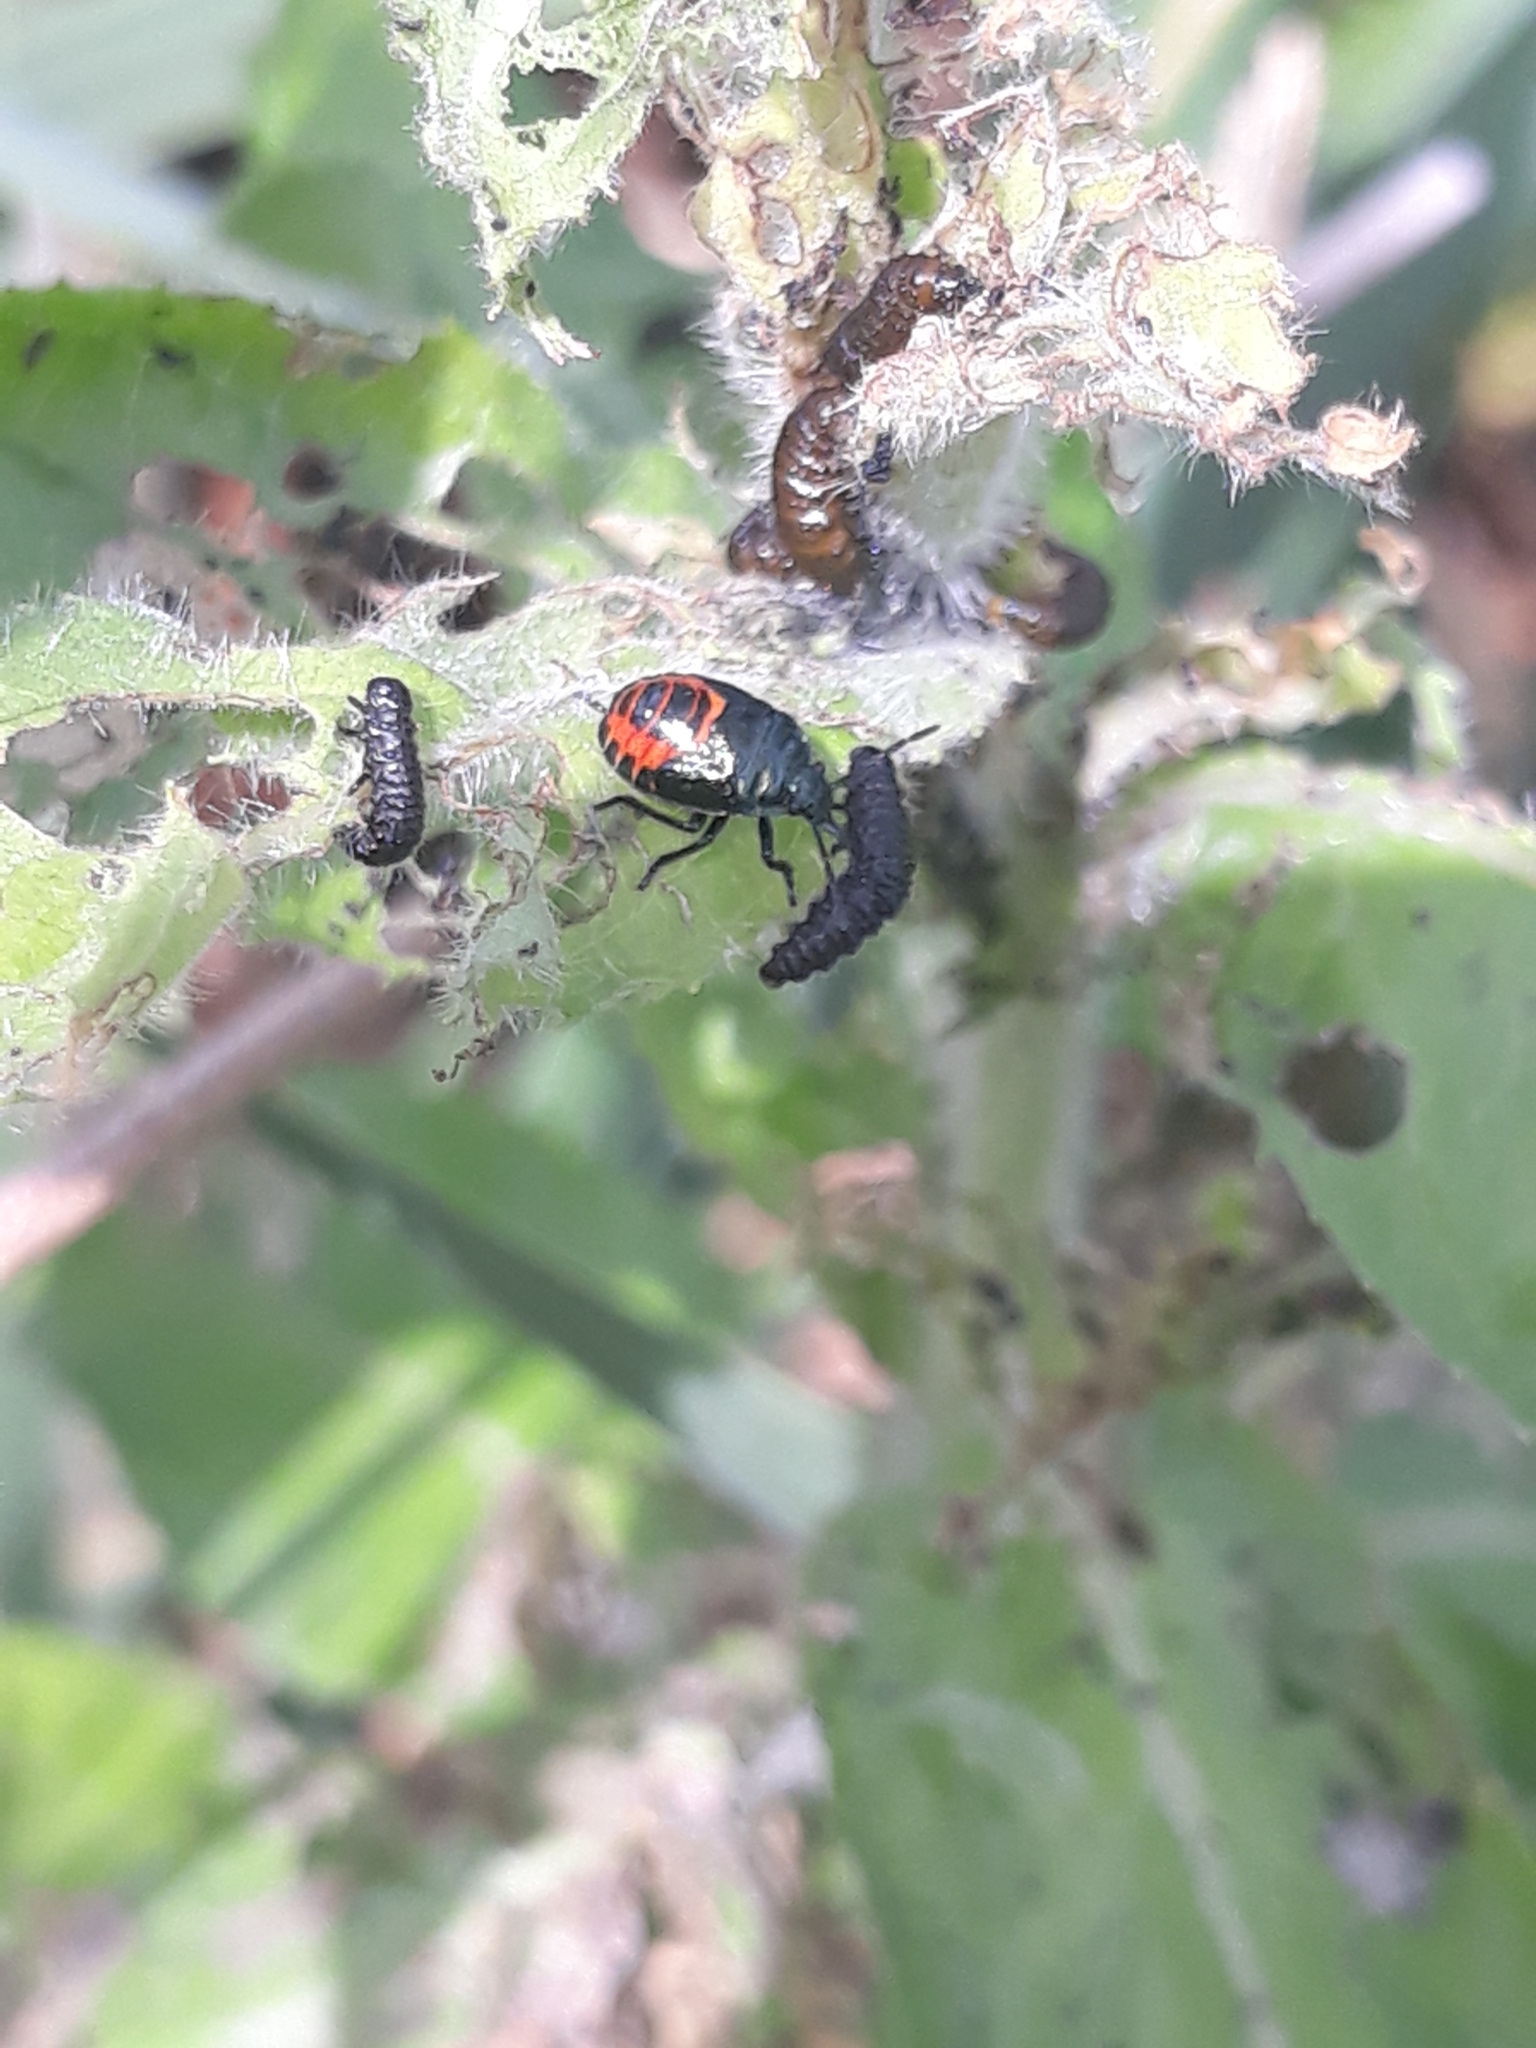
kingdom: Animalia
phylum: Arthropoda
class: Insecta
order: Hemiptera
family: Pentatomidae
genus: Zicrona
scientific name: Zicrona caerulea
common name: Blue shieldbug
